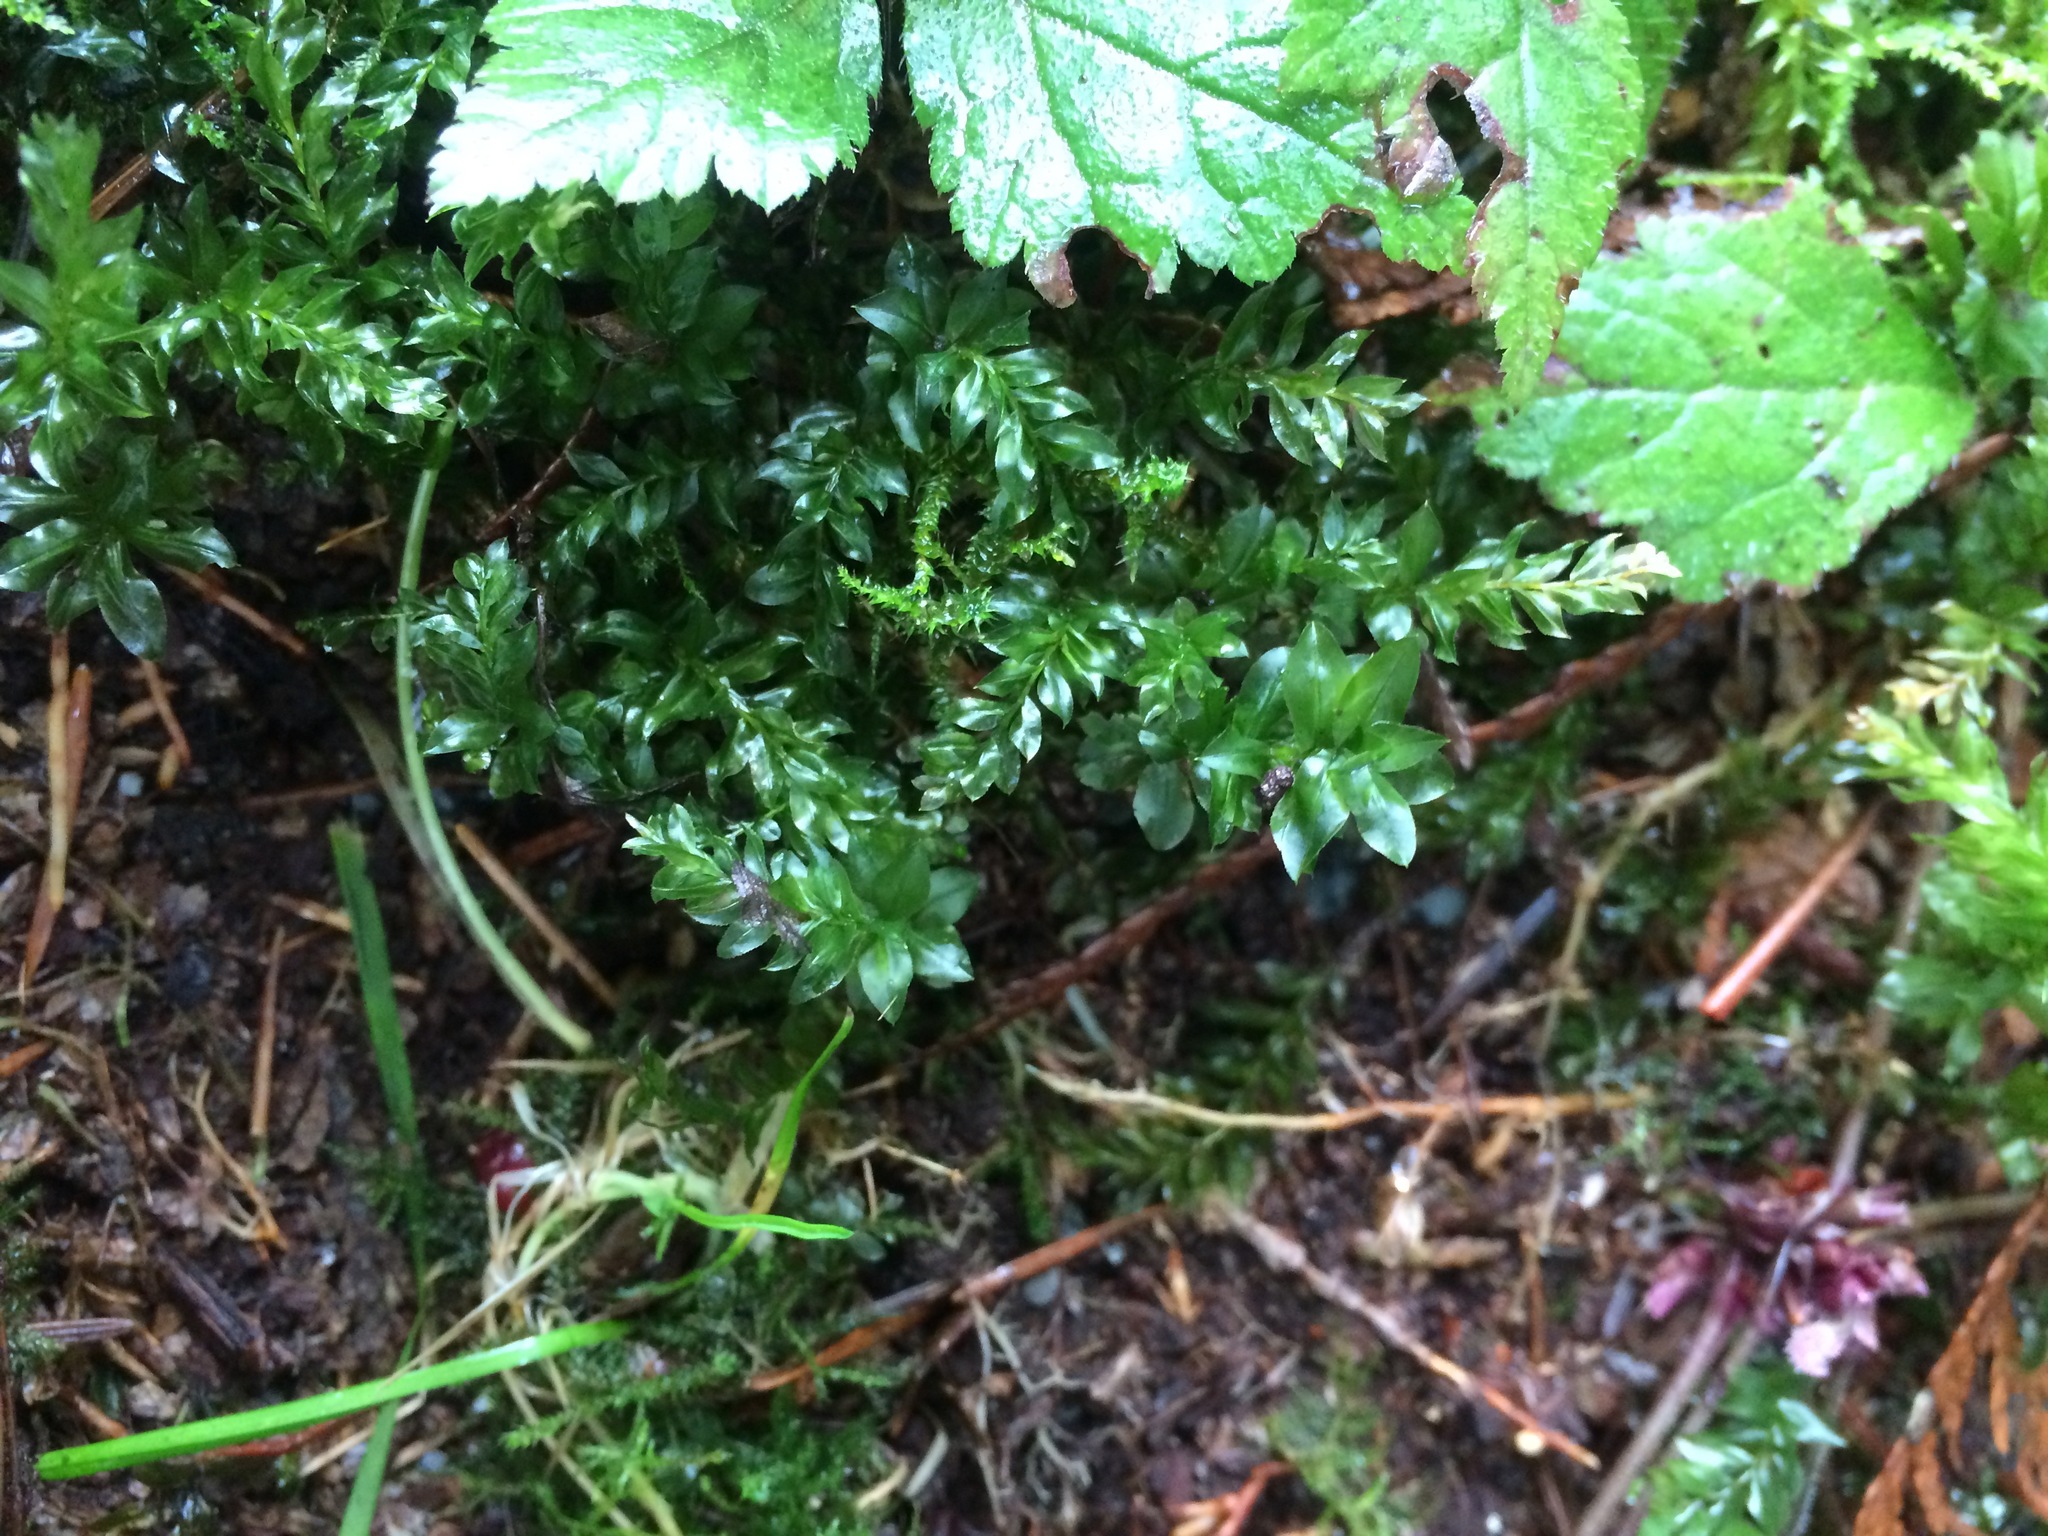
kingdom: Plantae
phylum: Bryophyta
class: Bryopsida
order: Bryales
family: Mniaceae
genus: Plagiomnium
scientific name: Plagiomnium insigne
